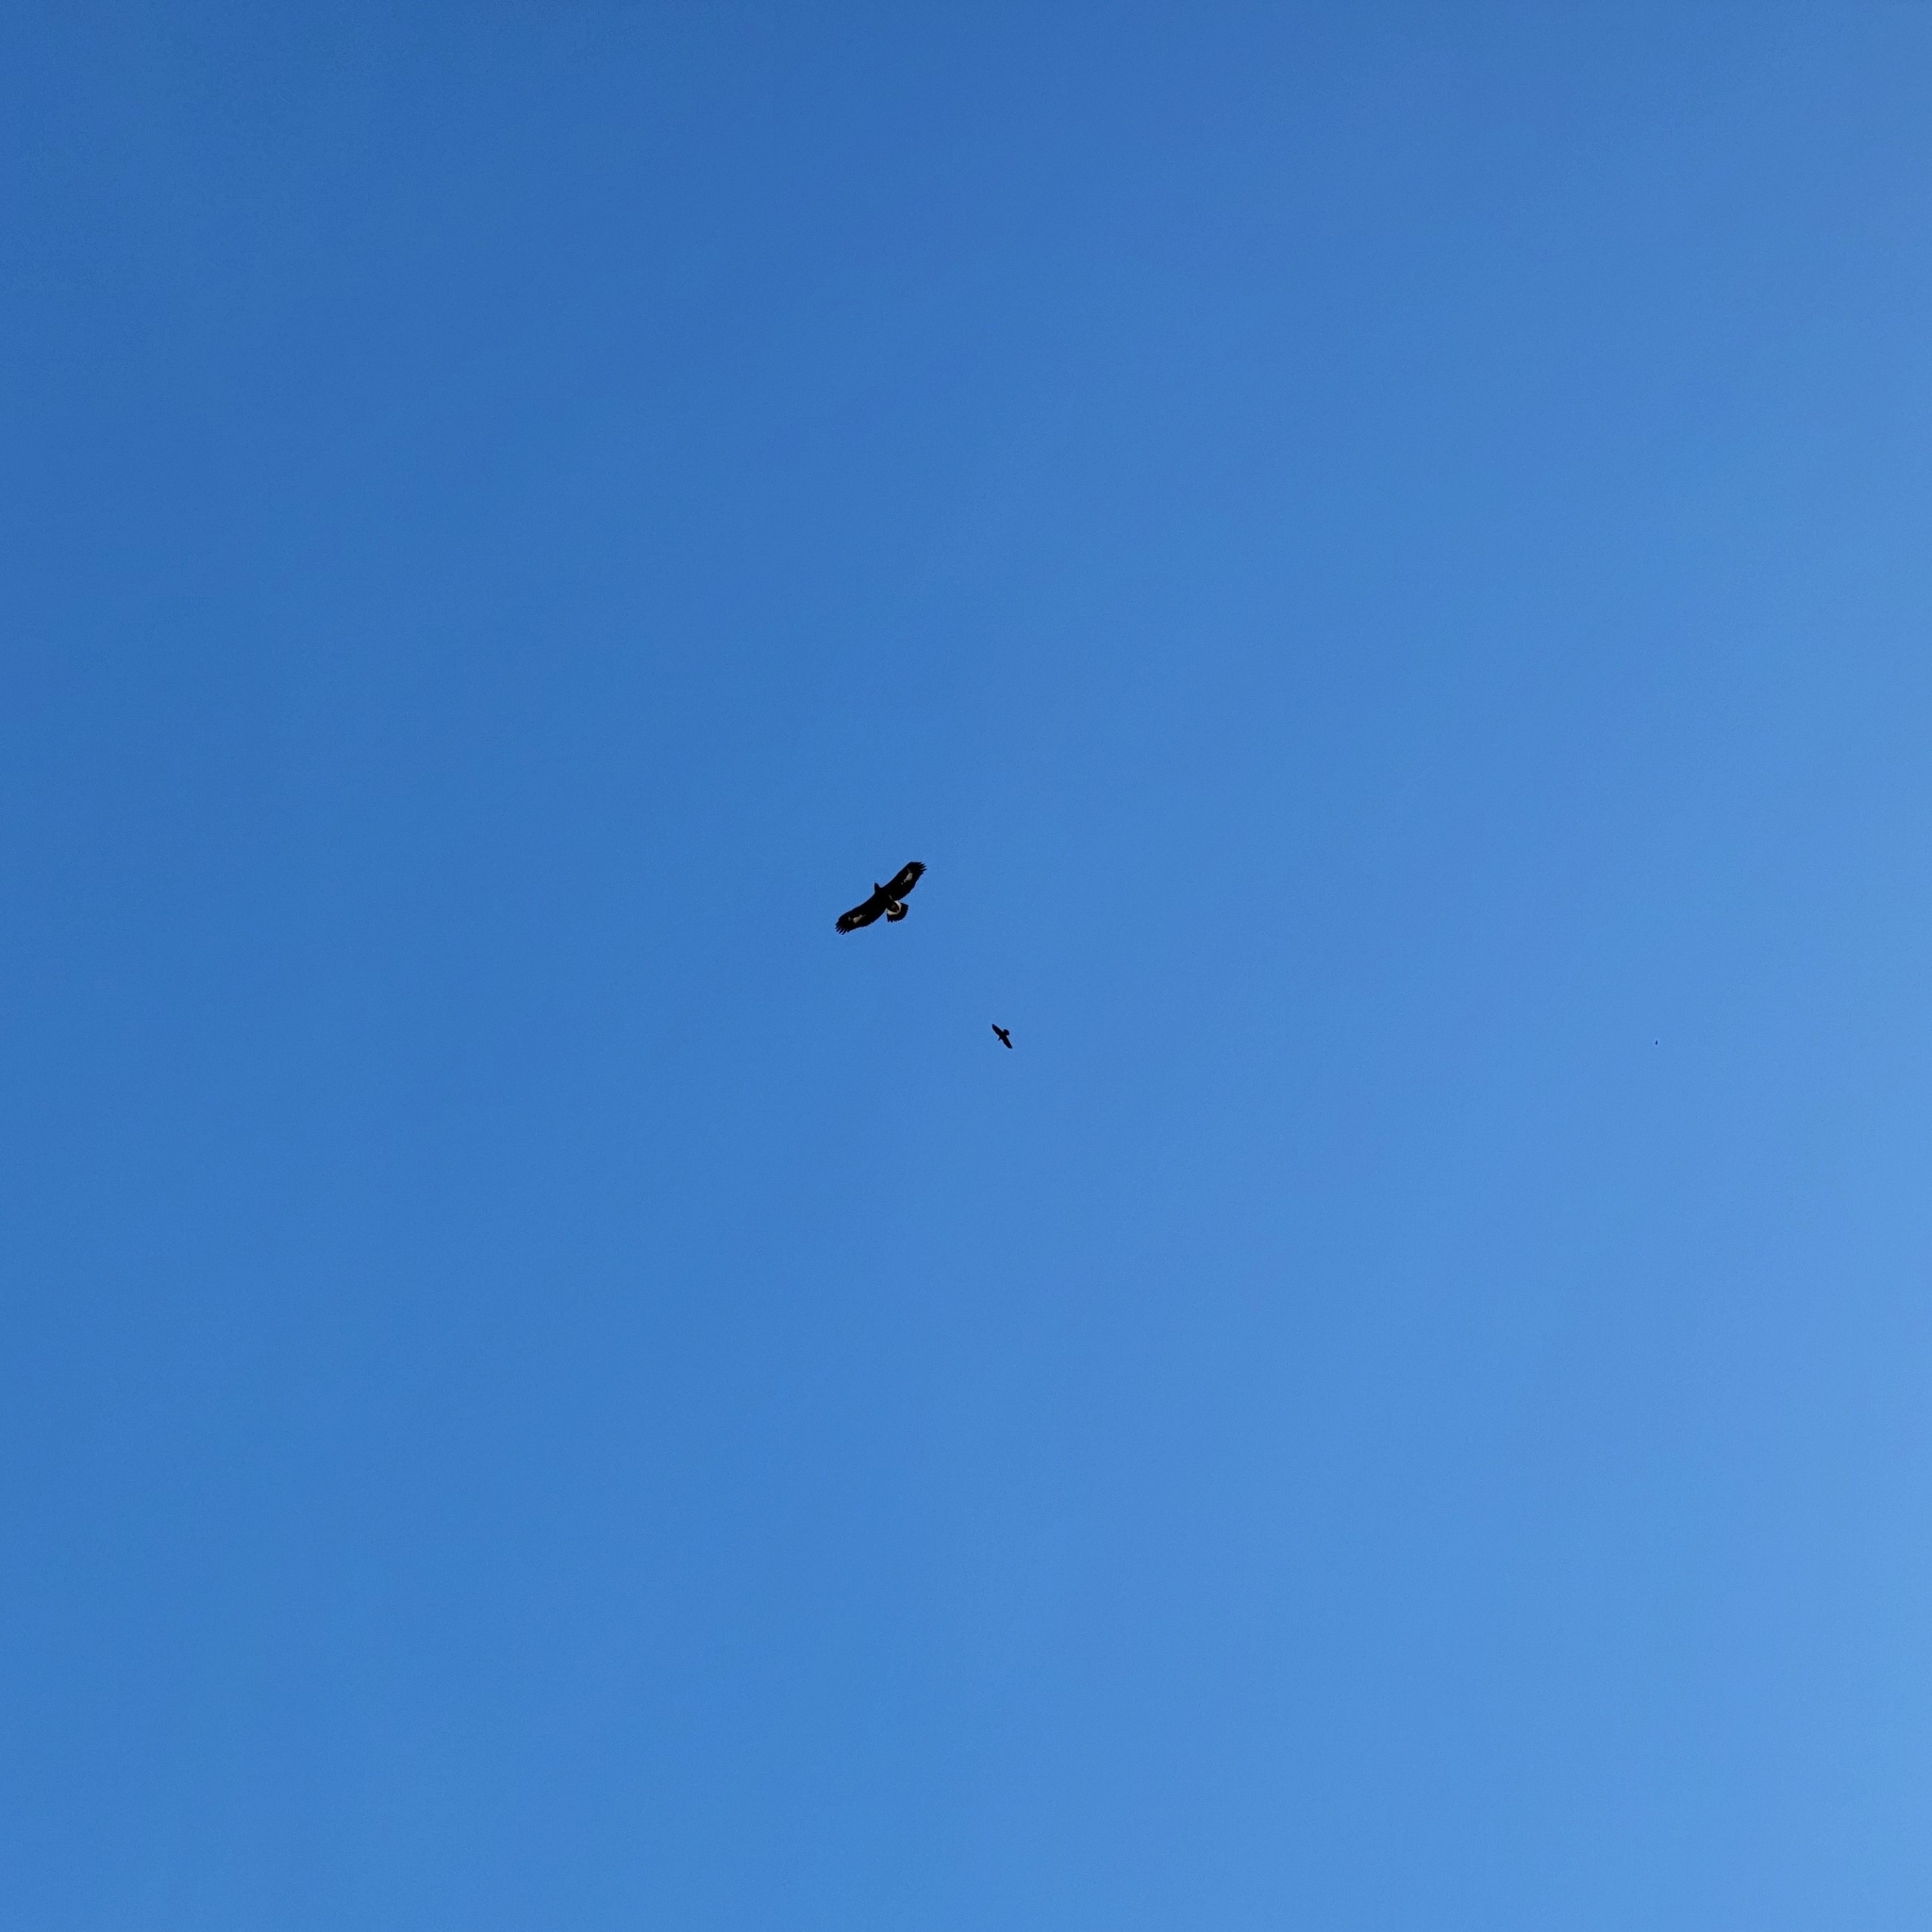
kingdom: Animalia
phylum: Chordata
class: Aves
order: Accipitriformes
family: Accipitridae
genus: Aquila
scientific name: Aquila chrysaetos
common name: Golden eagle
